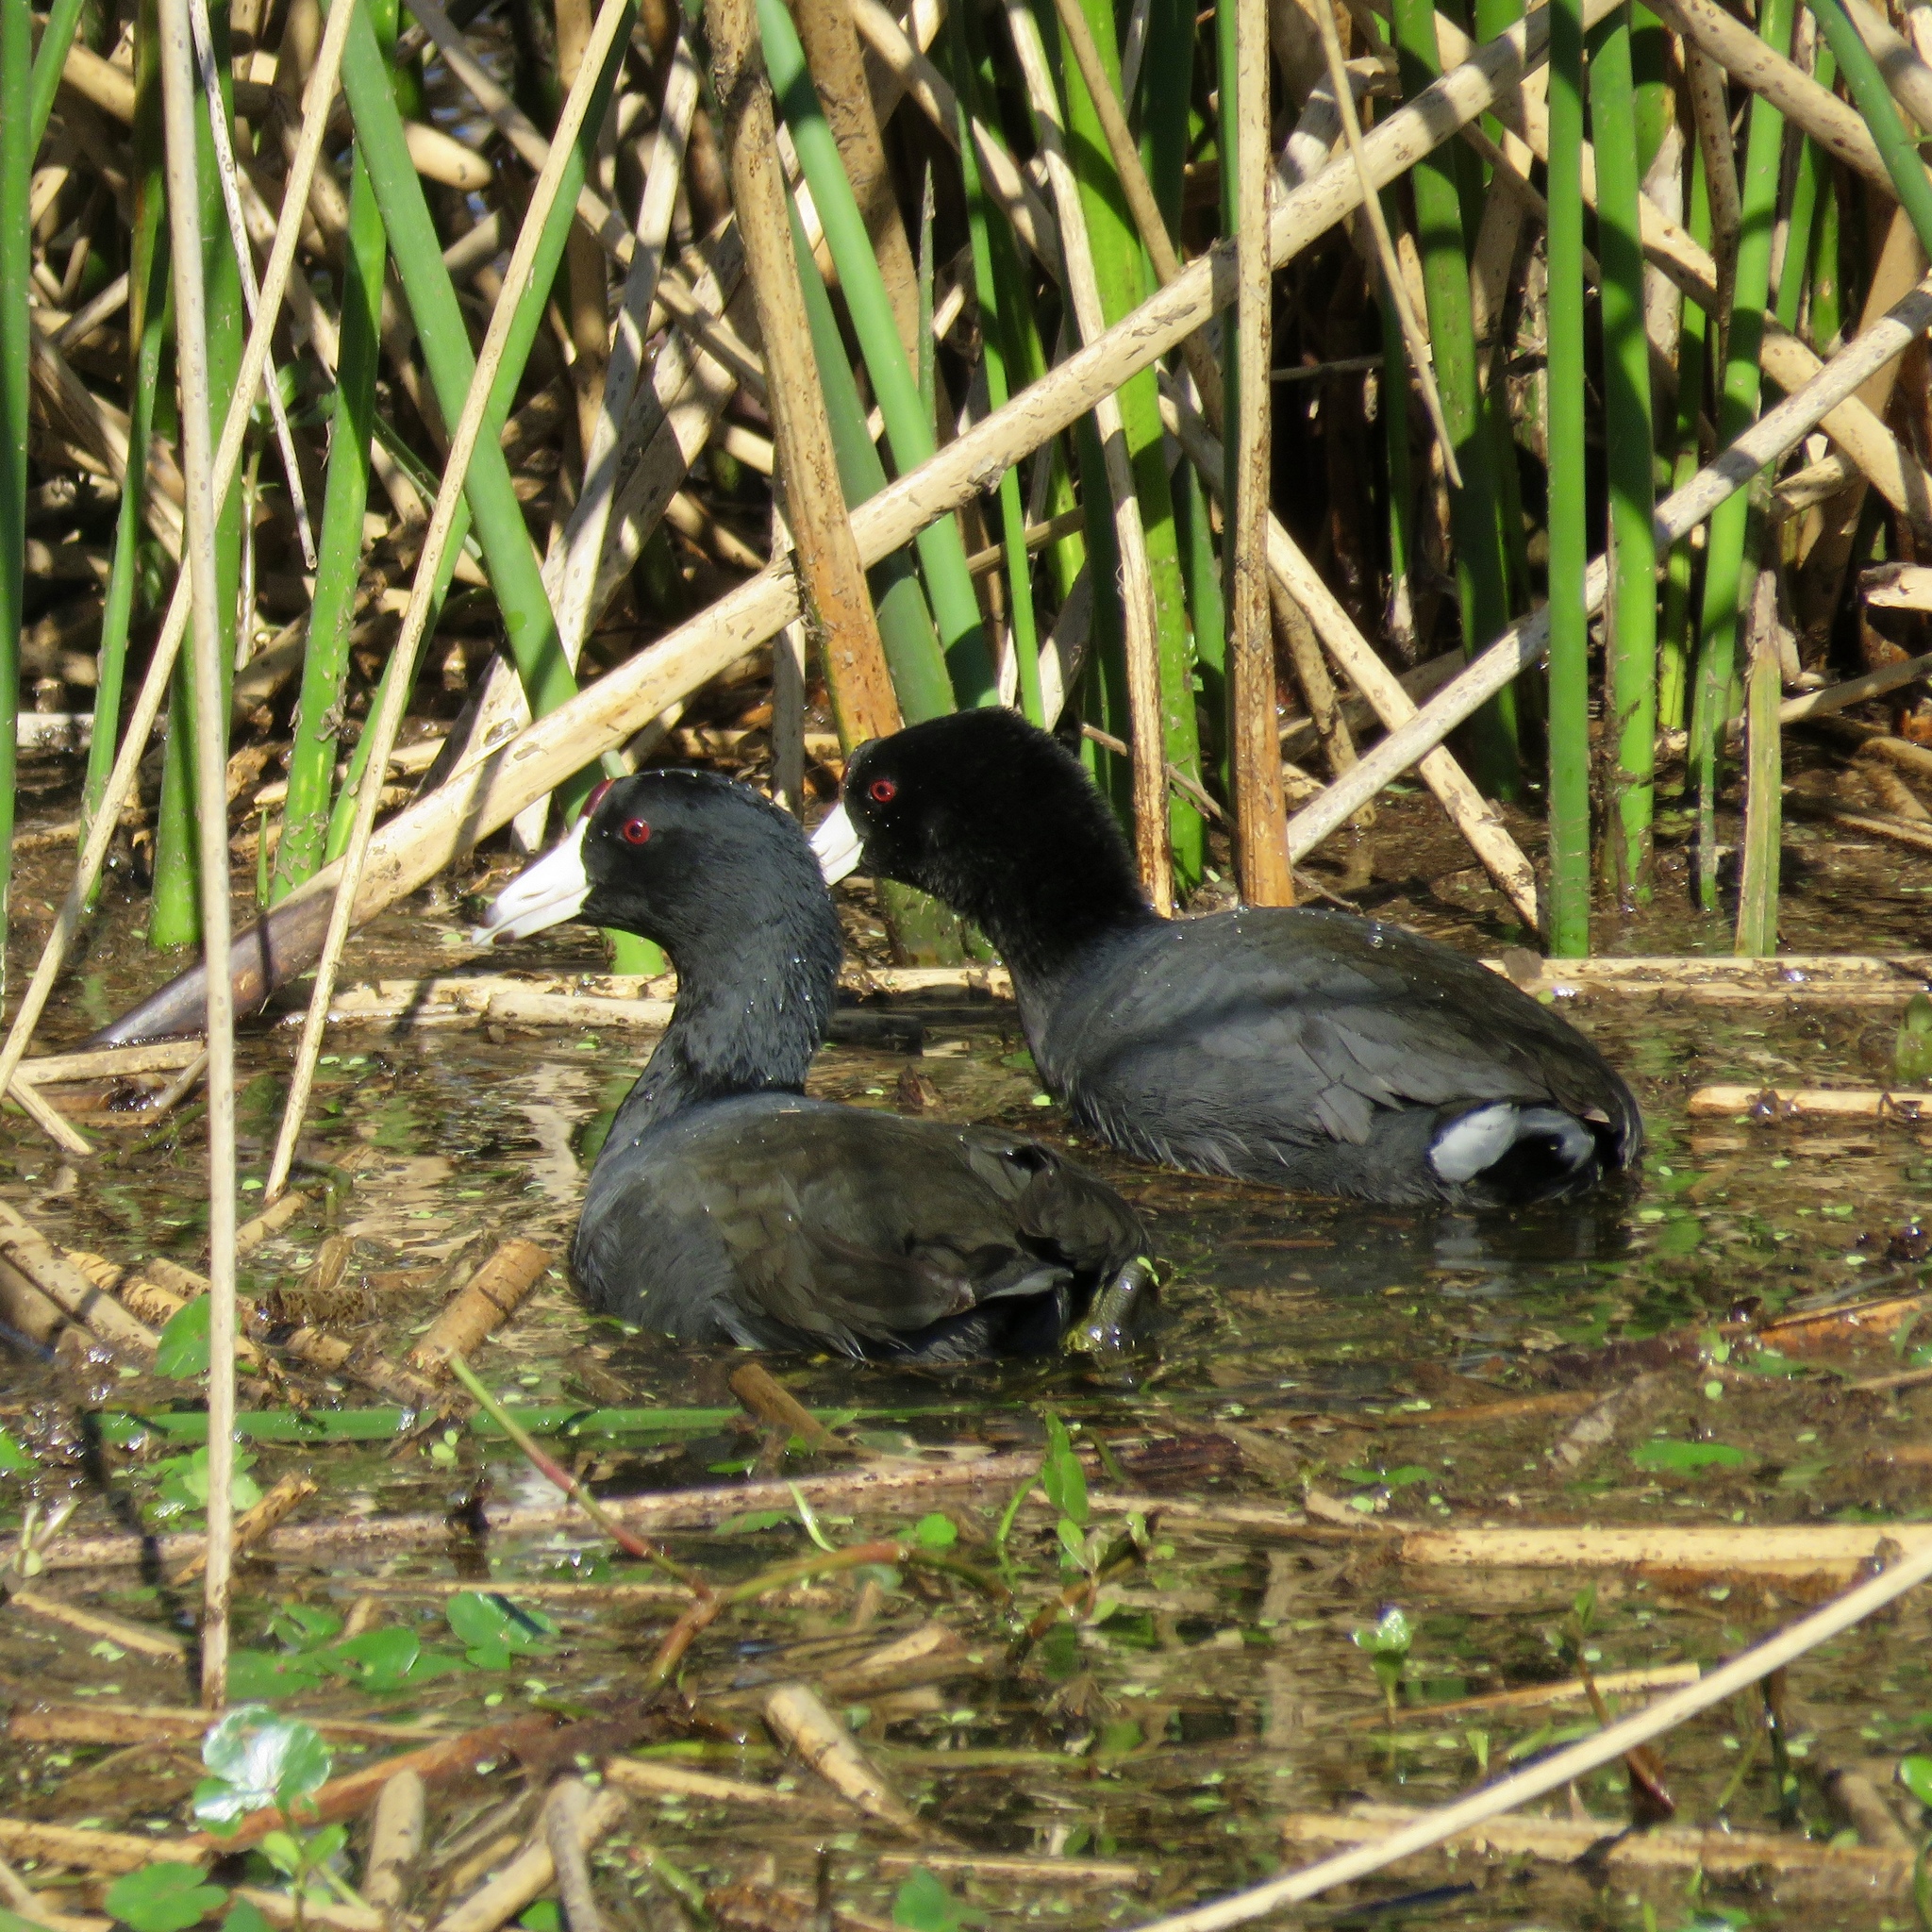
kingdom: Animalia
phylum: Chordata
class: Aves
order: Gruiformes
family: Rallidae
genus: Fulica
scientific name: Fulica americana
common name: American coot
